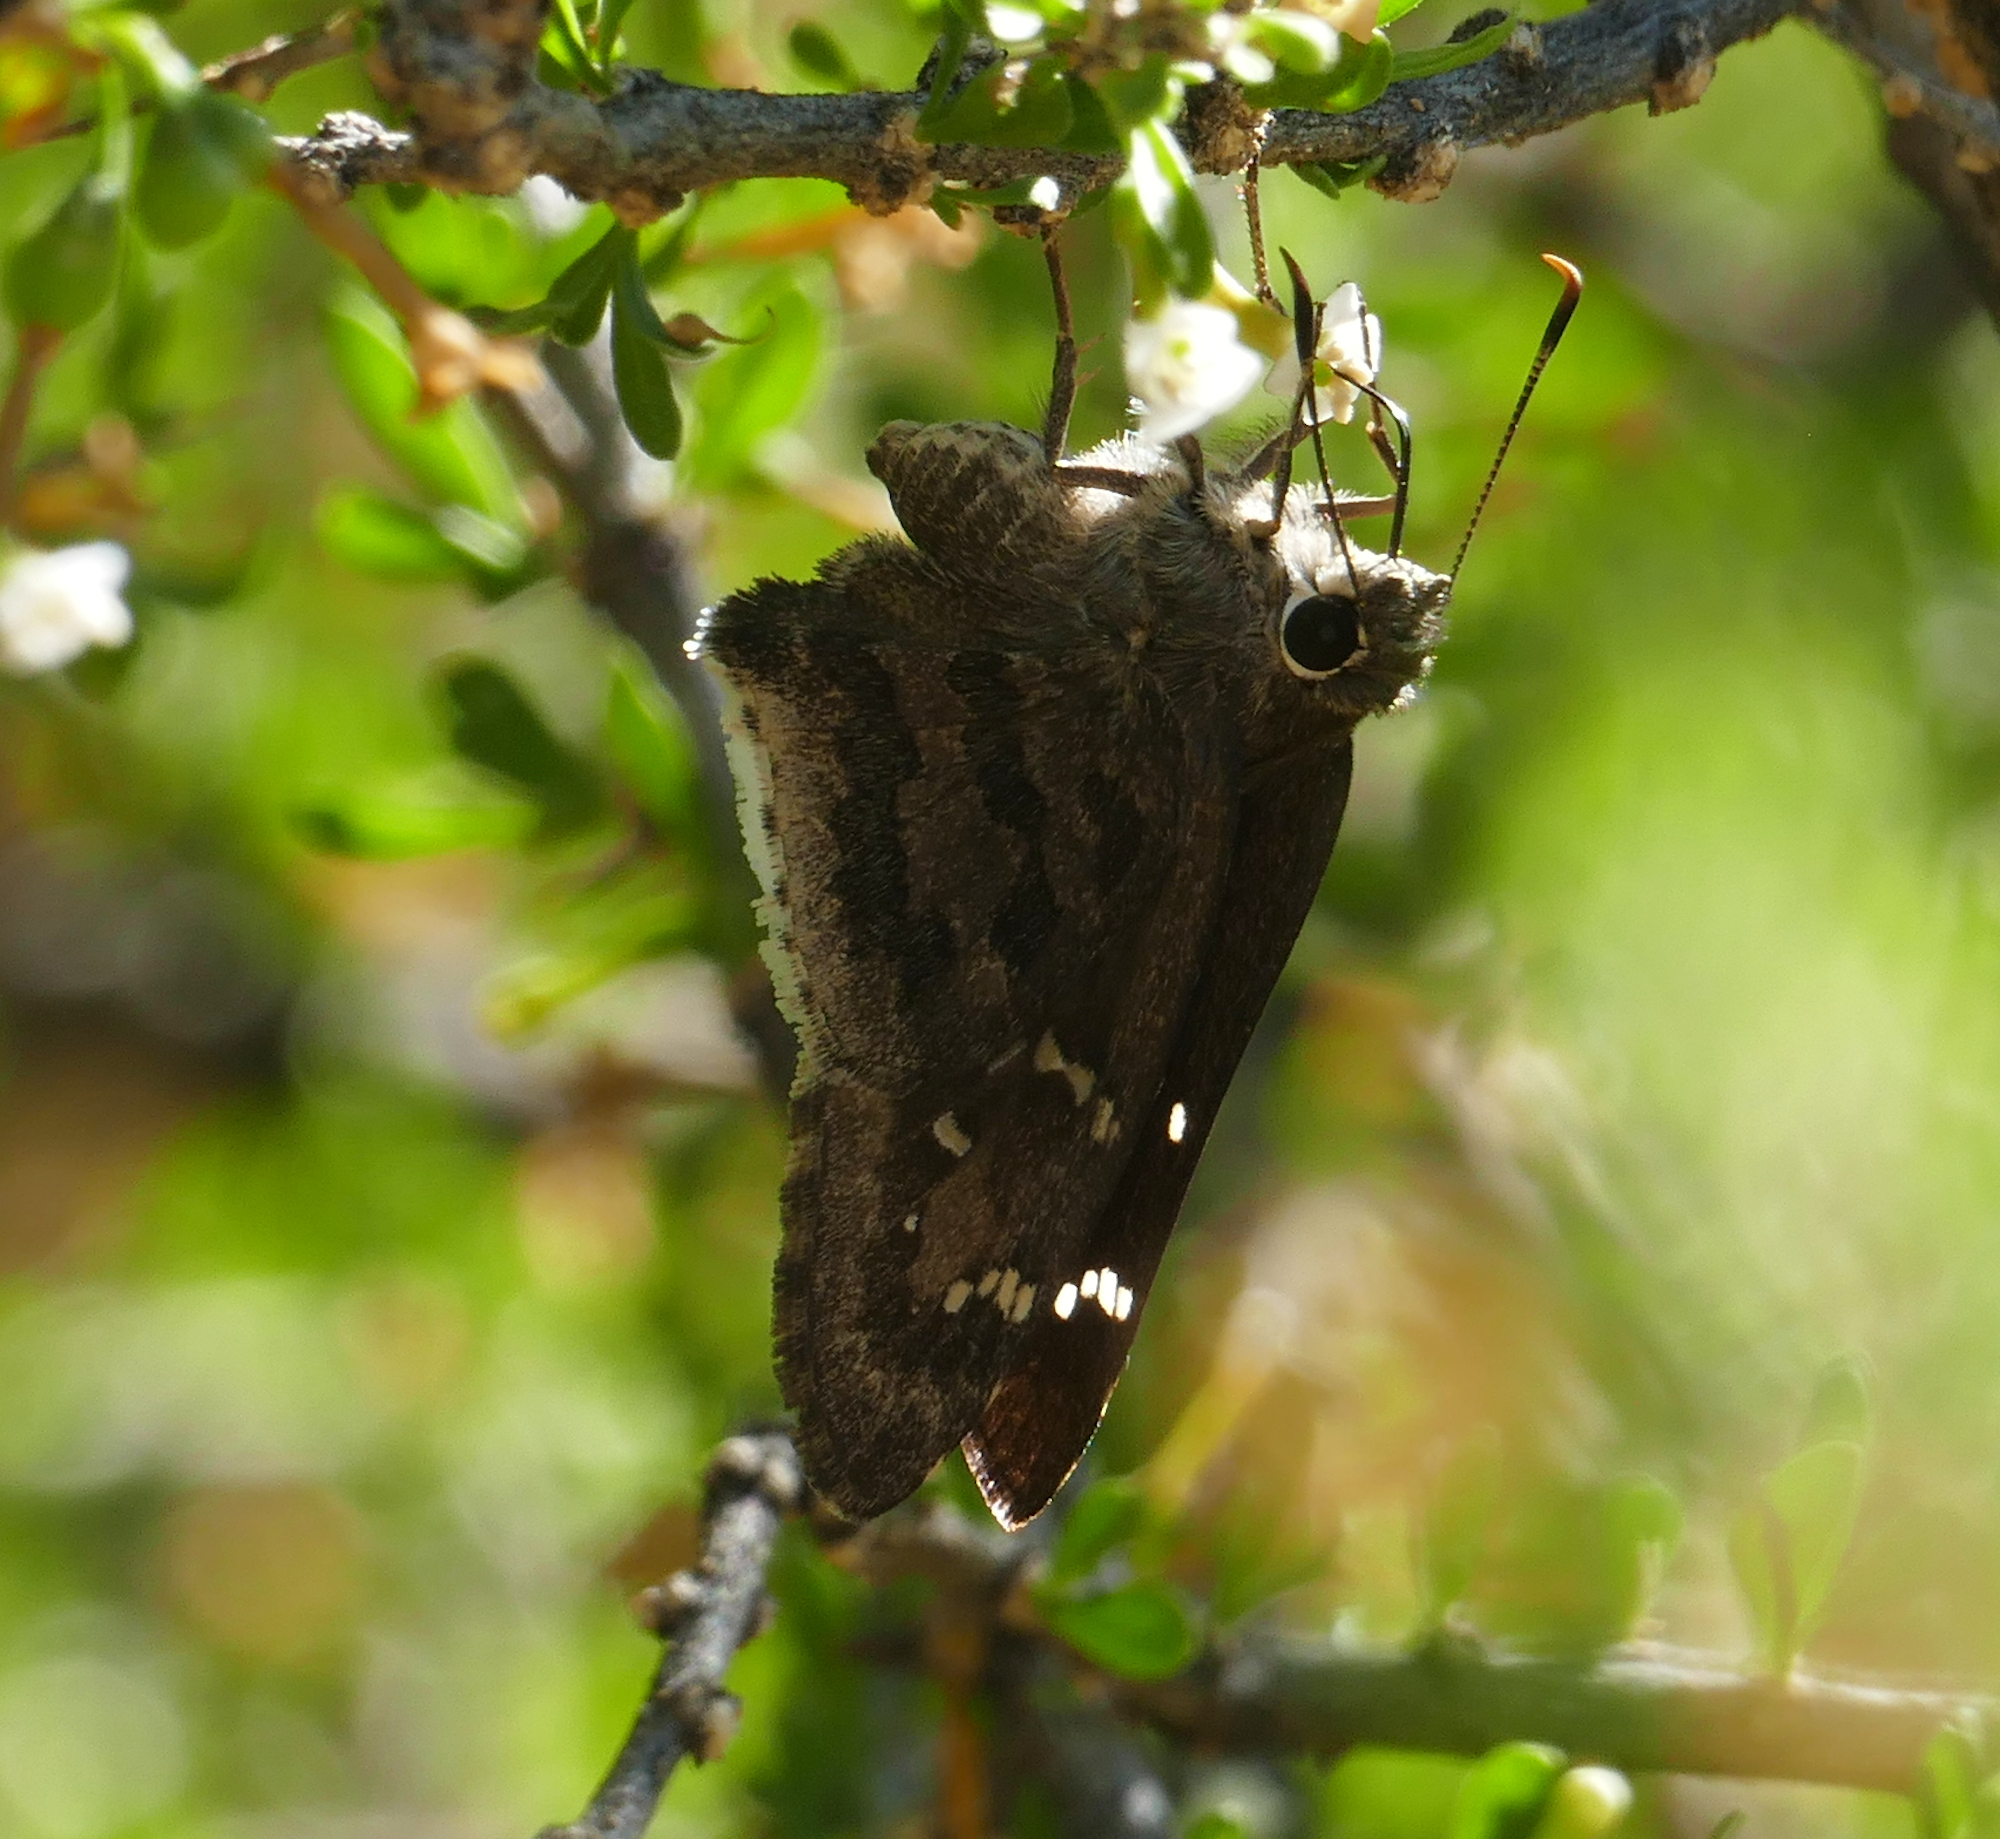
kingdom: Animalia
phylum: Arthropoda
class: Insecta
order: Lepidoptera
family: Hesperiidae
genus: Cogia
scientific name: Cogia hippalus
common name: Acacia skipper
